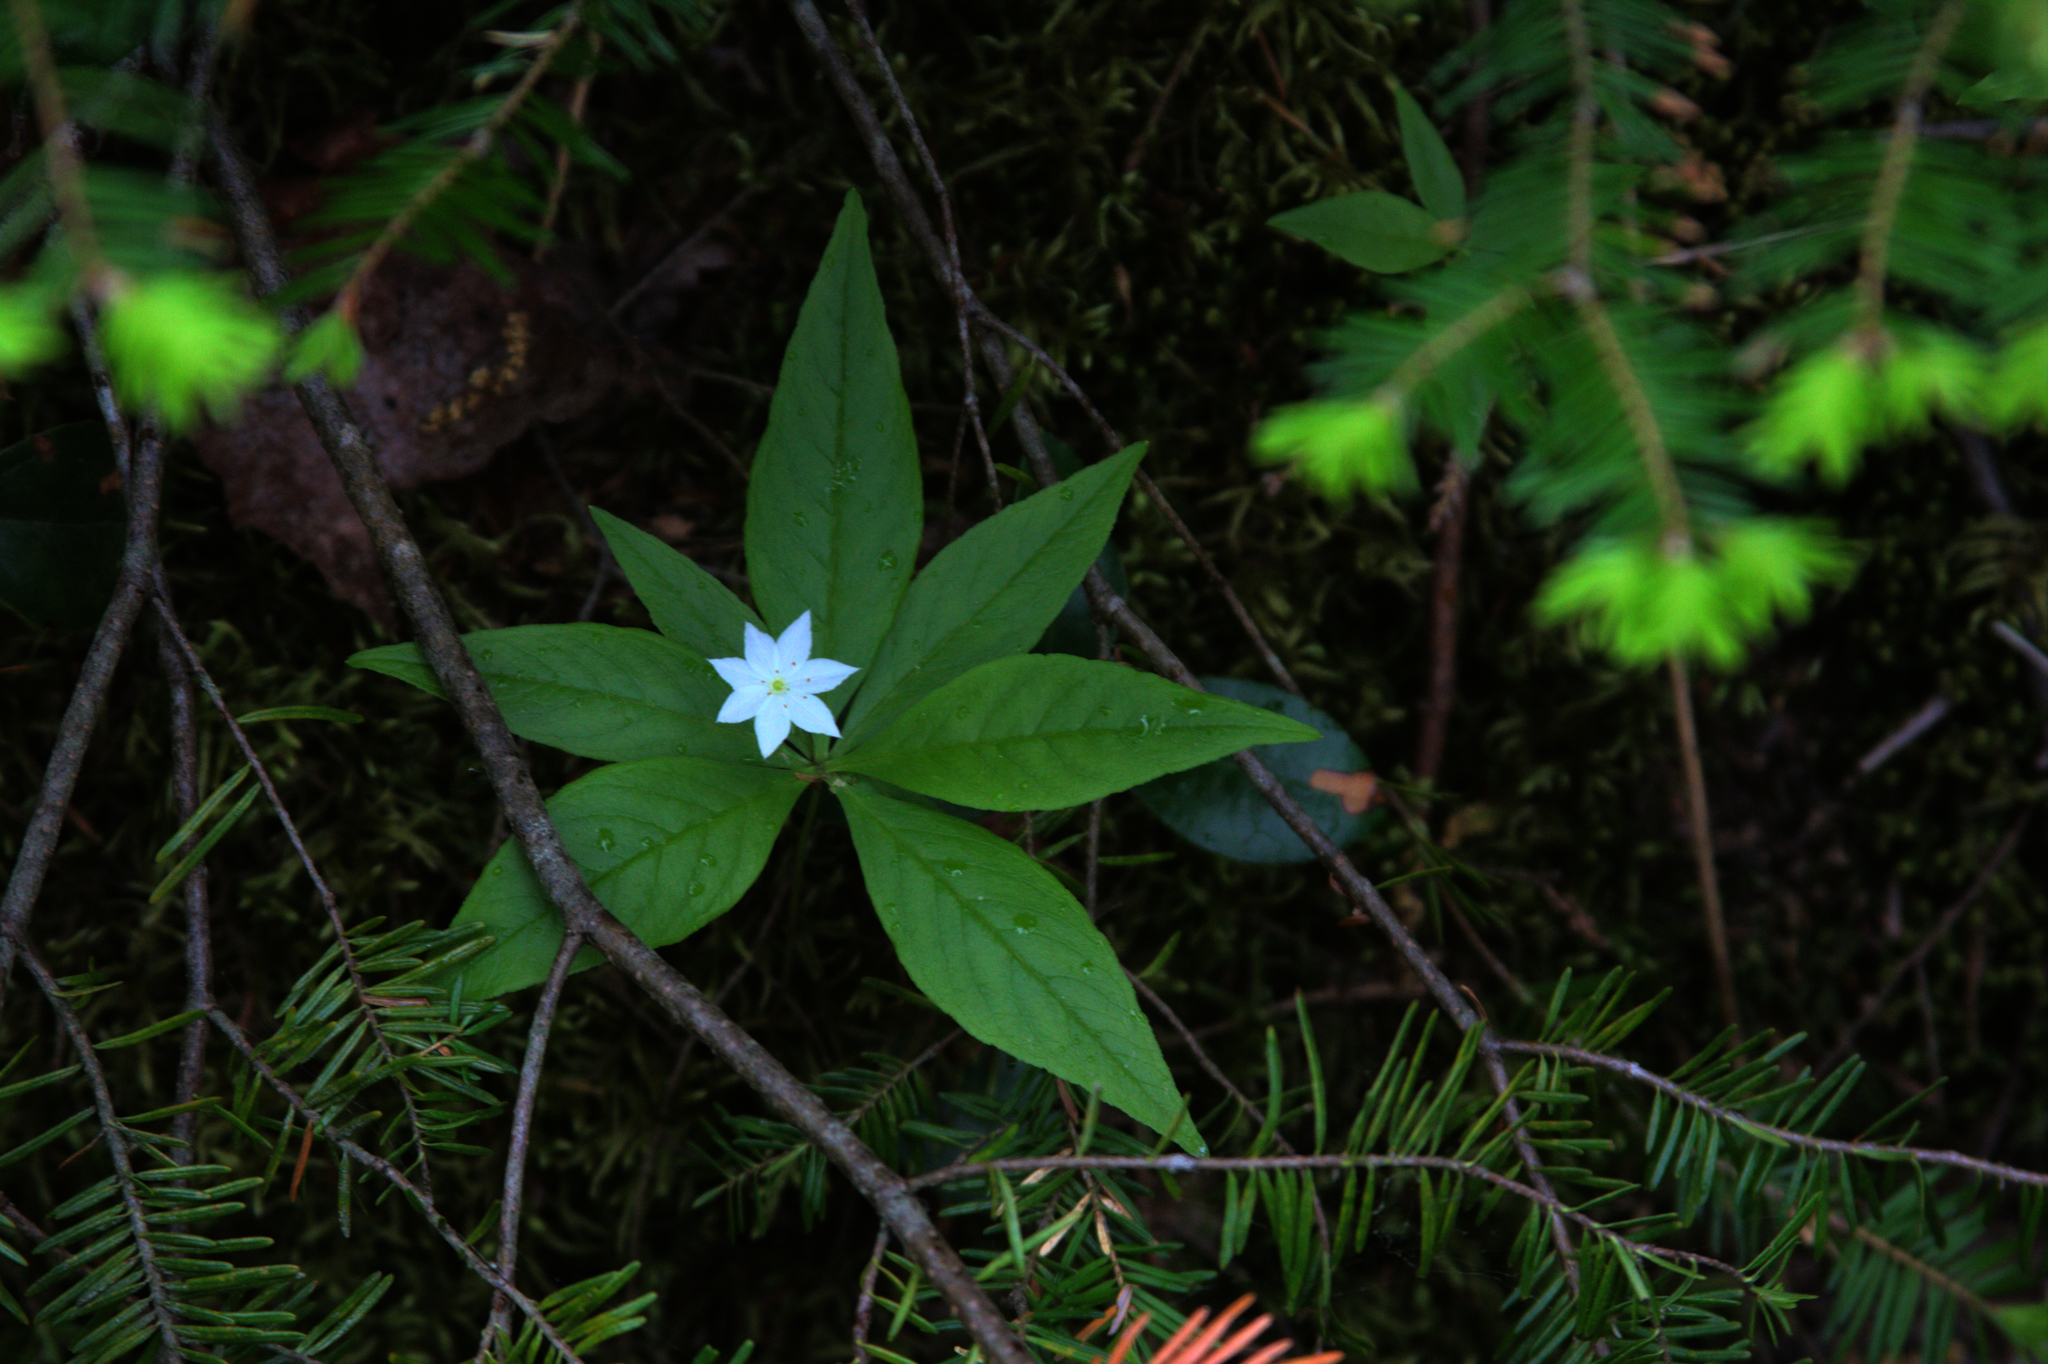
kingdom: Plantae
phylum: Tracheophyta
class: Magnoliopsida
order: Ericales
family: Primulaceae
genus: Lysimachia
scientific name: Lysimachia borealis
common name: American starflower
